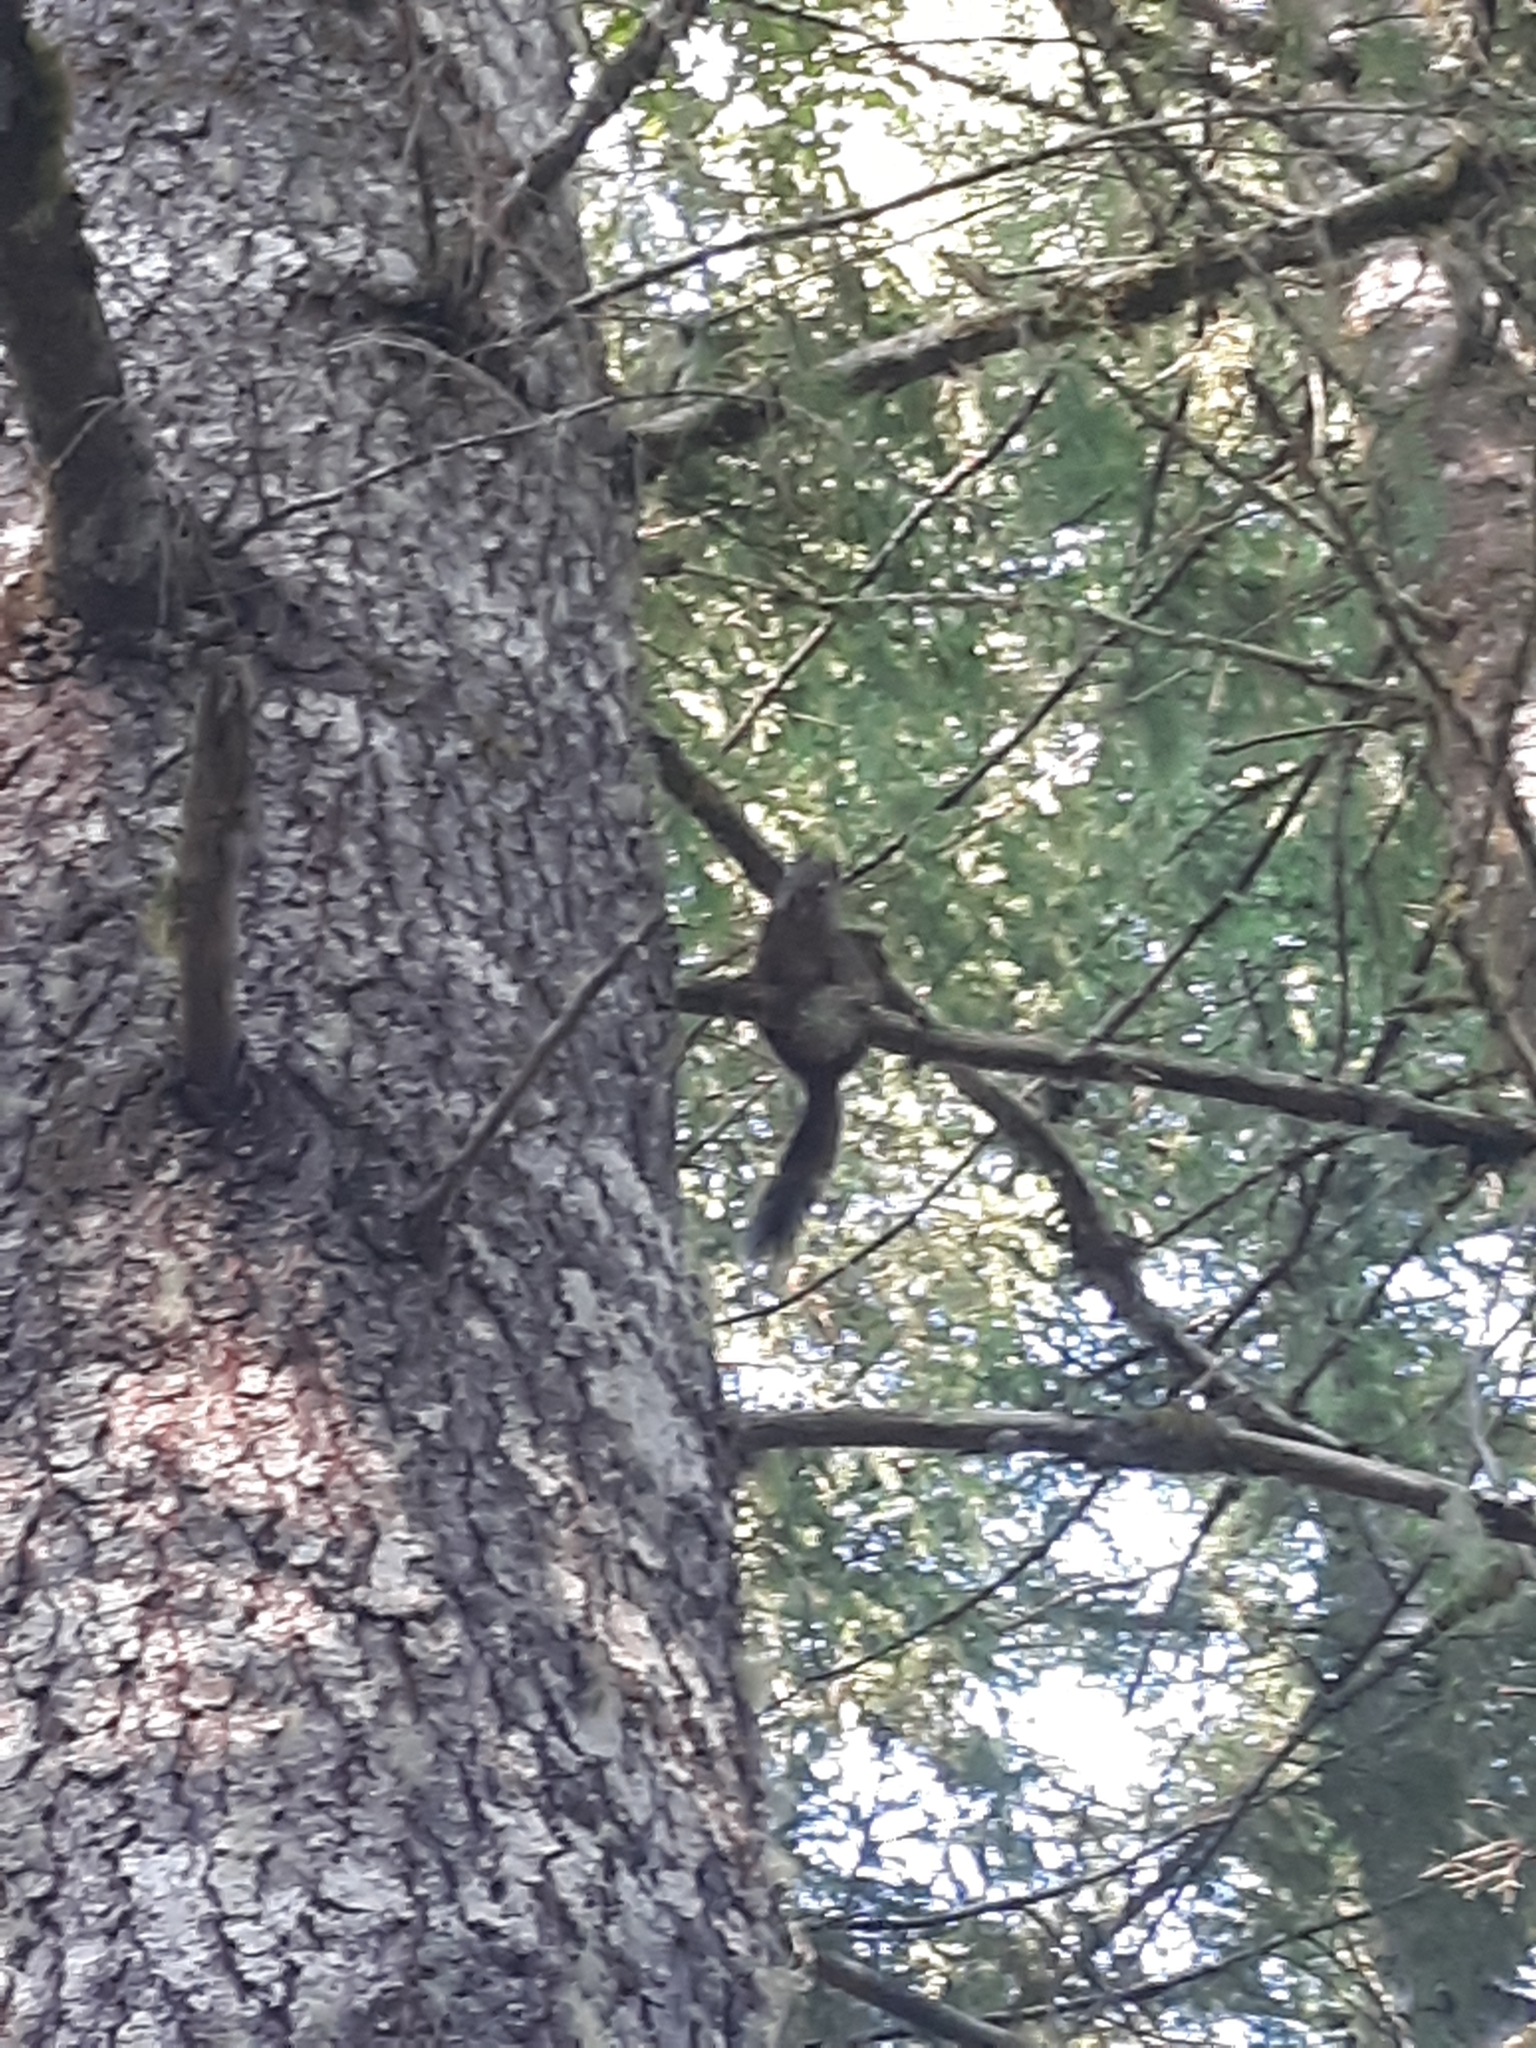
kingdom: Animalia
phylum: Chordata
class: Mammalia
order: Rodentia
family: Sciuridae
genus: Tamiasciurus
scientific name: Tamiasciurus douglasii
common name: Douglas's squirrel
